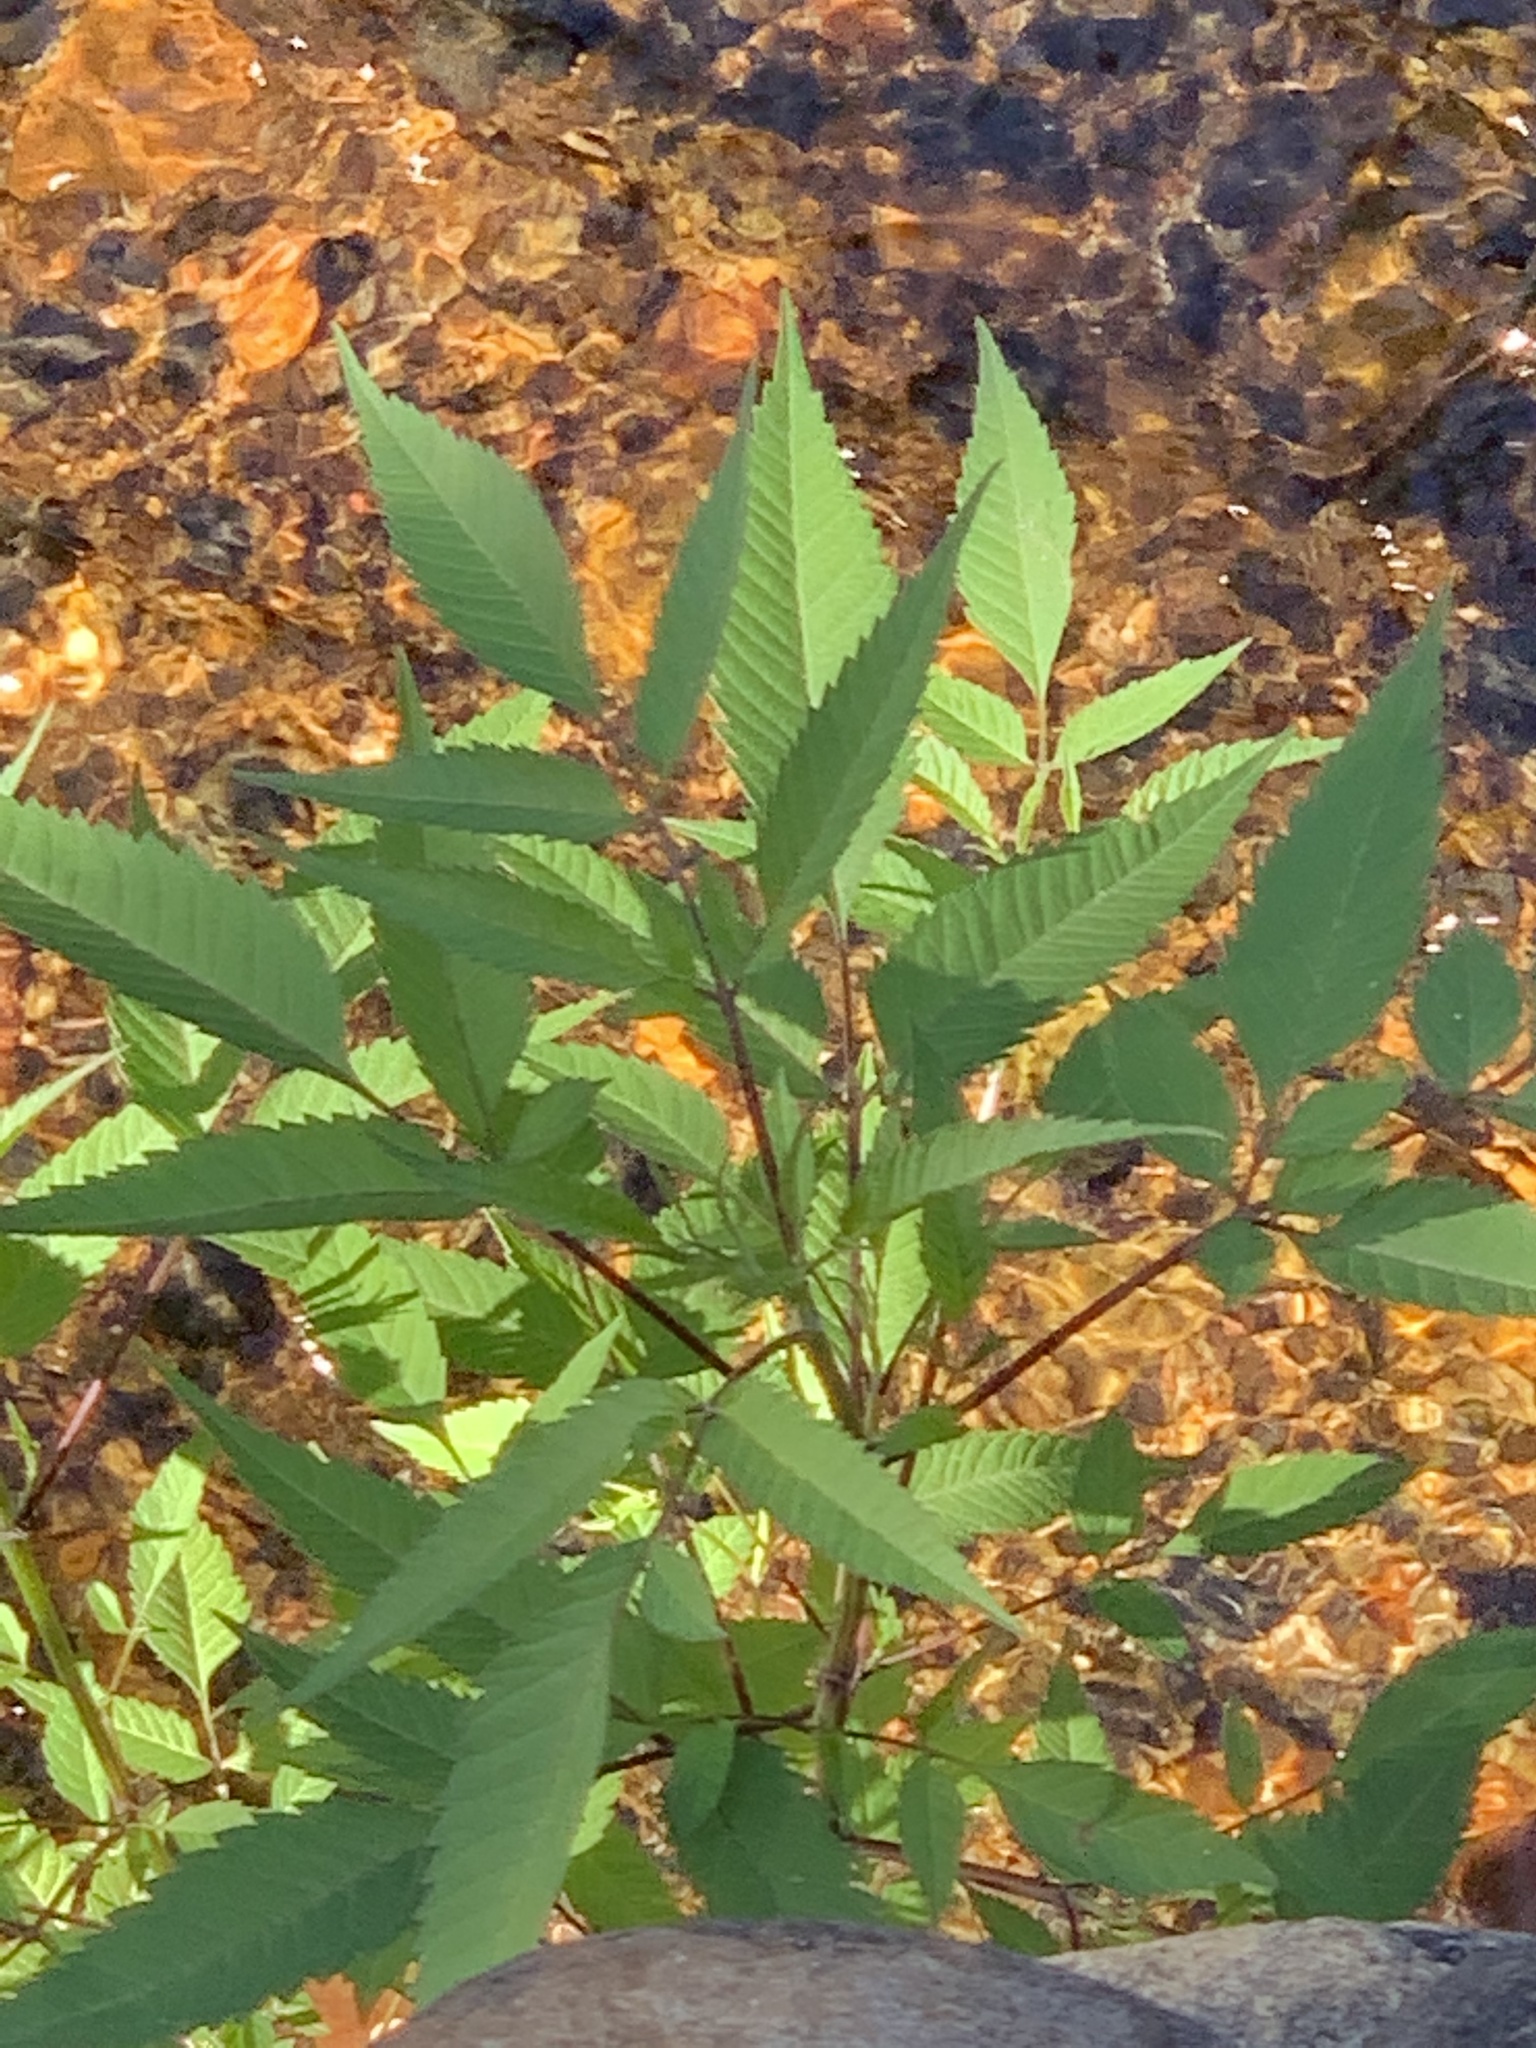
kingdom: Plantae
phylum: Tracheophyta
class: Magnoliopsida
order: Asterales
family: Asteraceae
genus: Bidens
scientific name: Bidens frondosa
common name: Beggarticks
